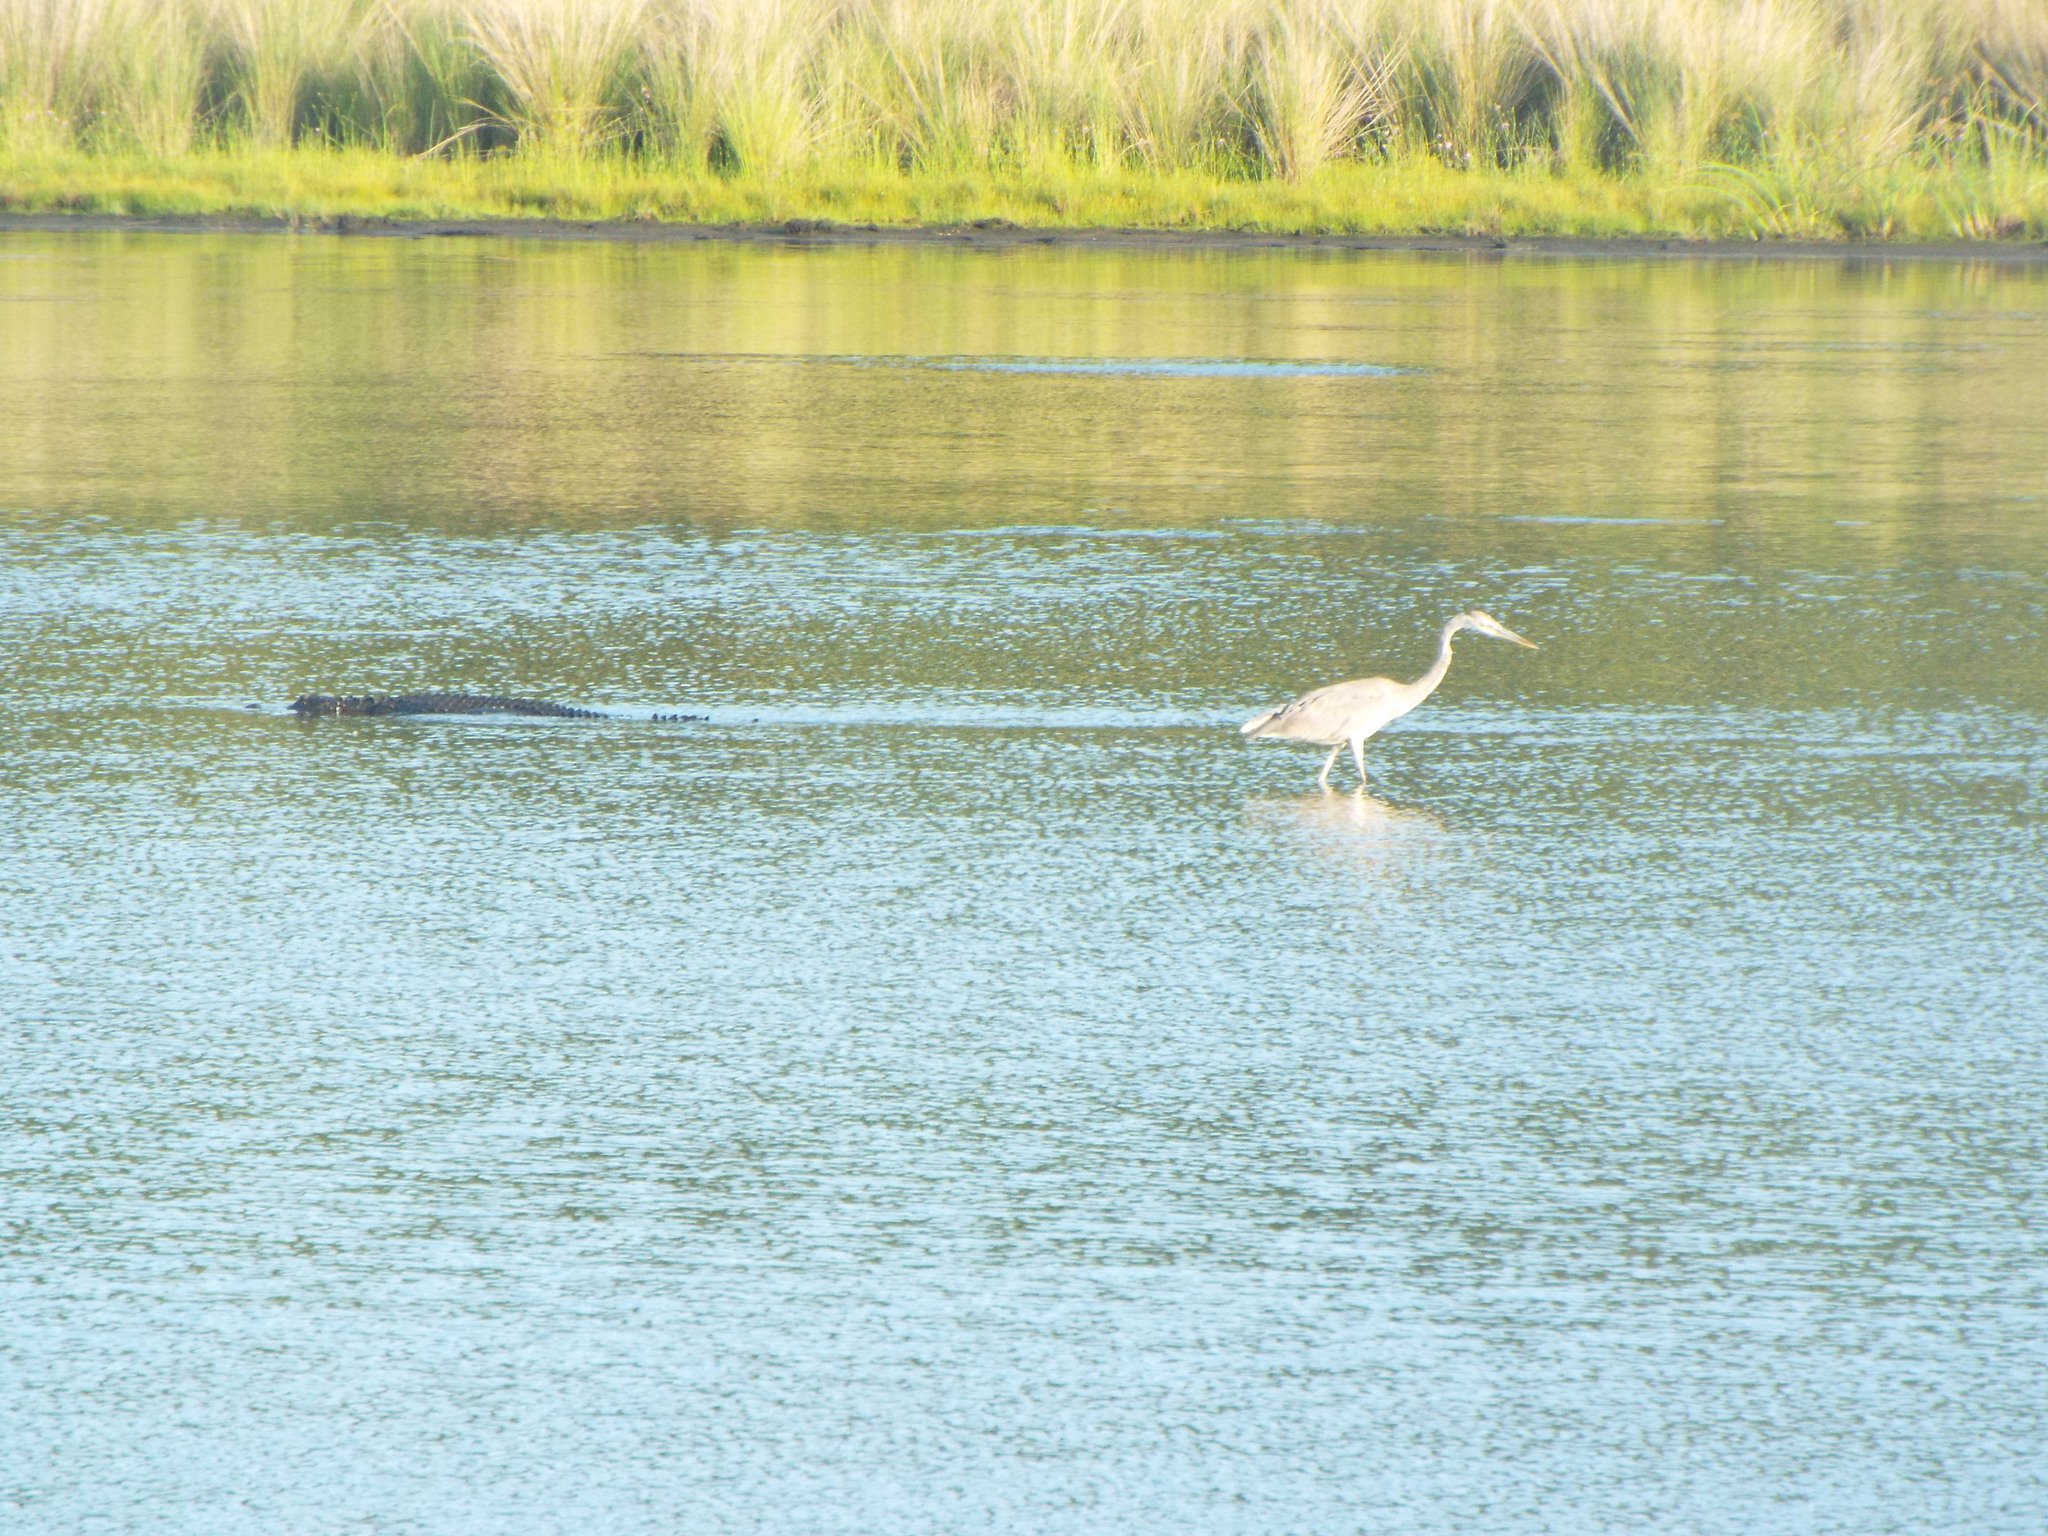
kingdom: Animalia
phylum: Chordata
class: Crocodylia
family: Alligatoridae
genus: Alligator
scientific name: Alligator mississippiensis
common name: American alligator
